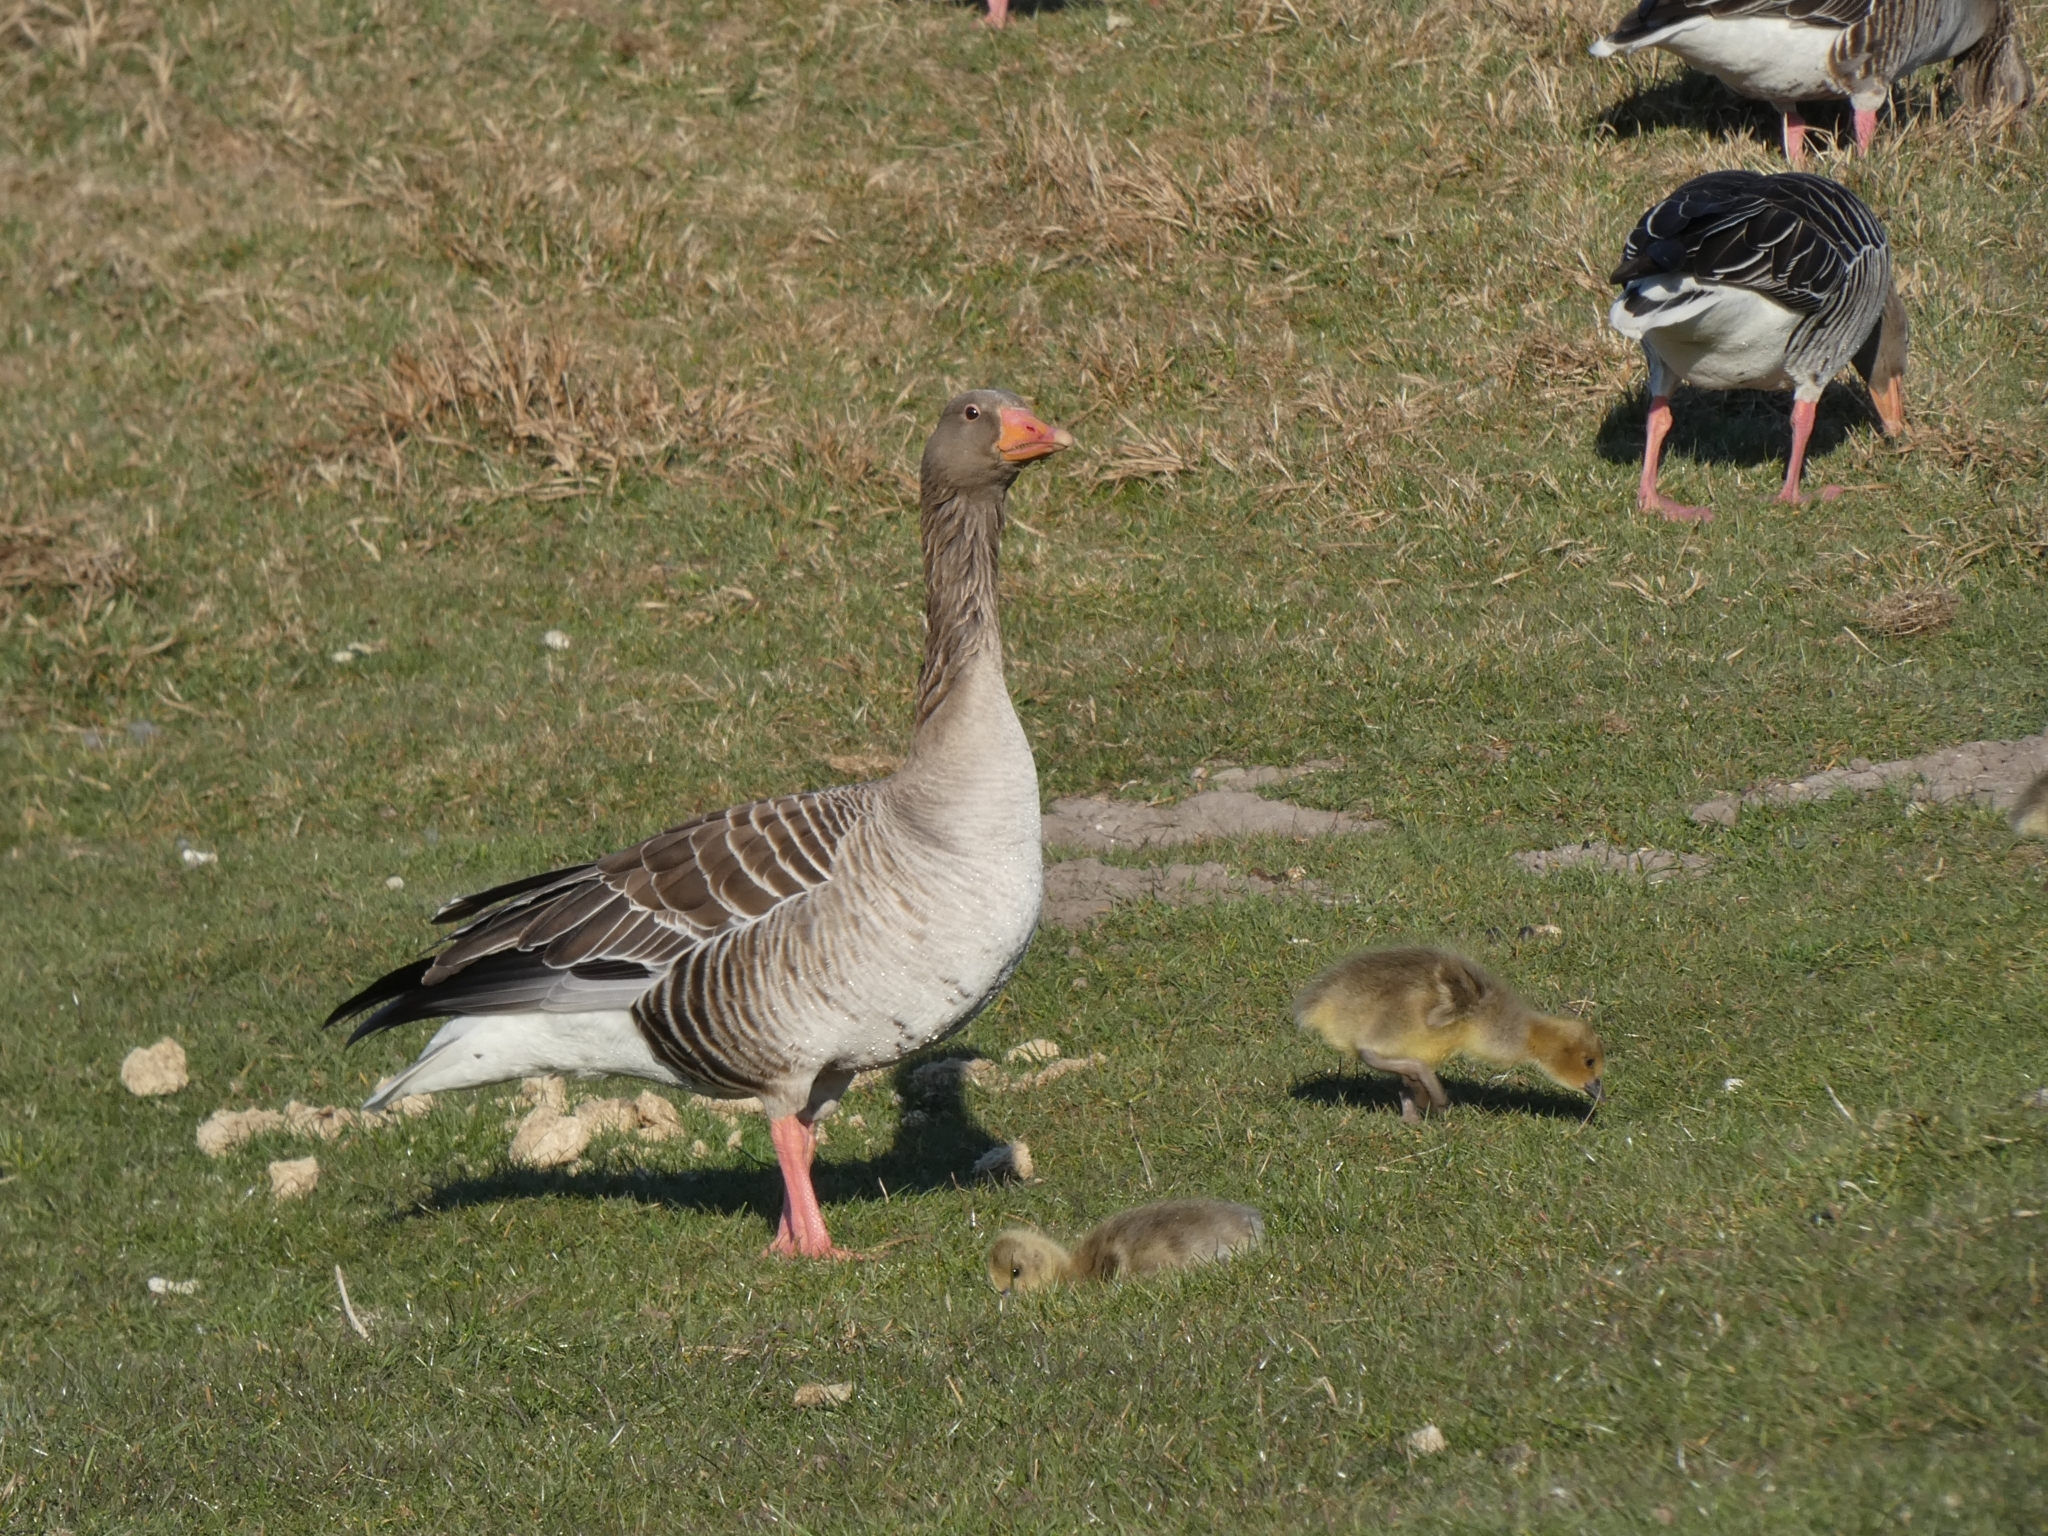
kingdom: Animalia
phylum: Chordata
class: Aves
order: Anseriformes
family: Anatidae
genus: Anser
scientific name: Anser anser
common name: Greylag goose
